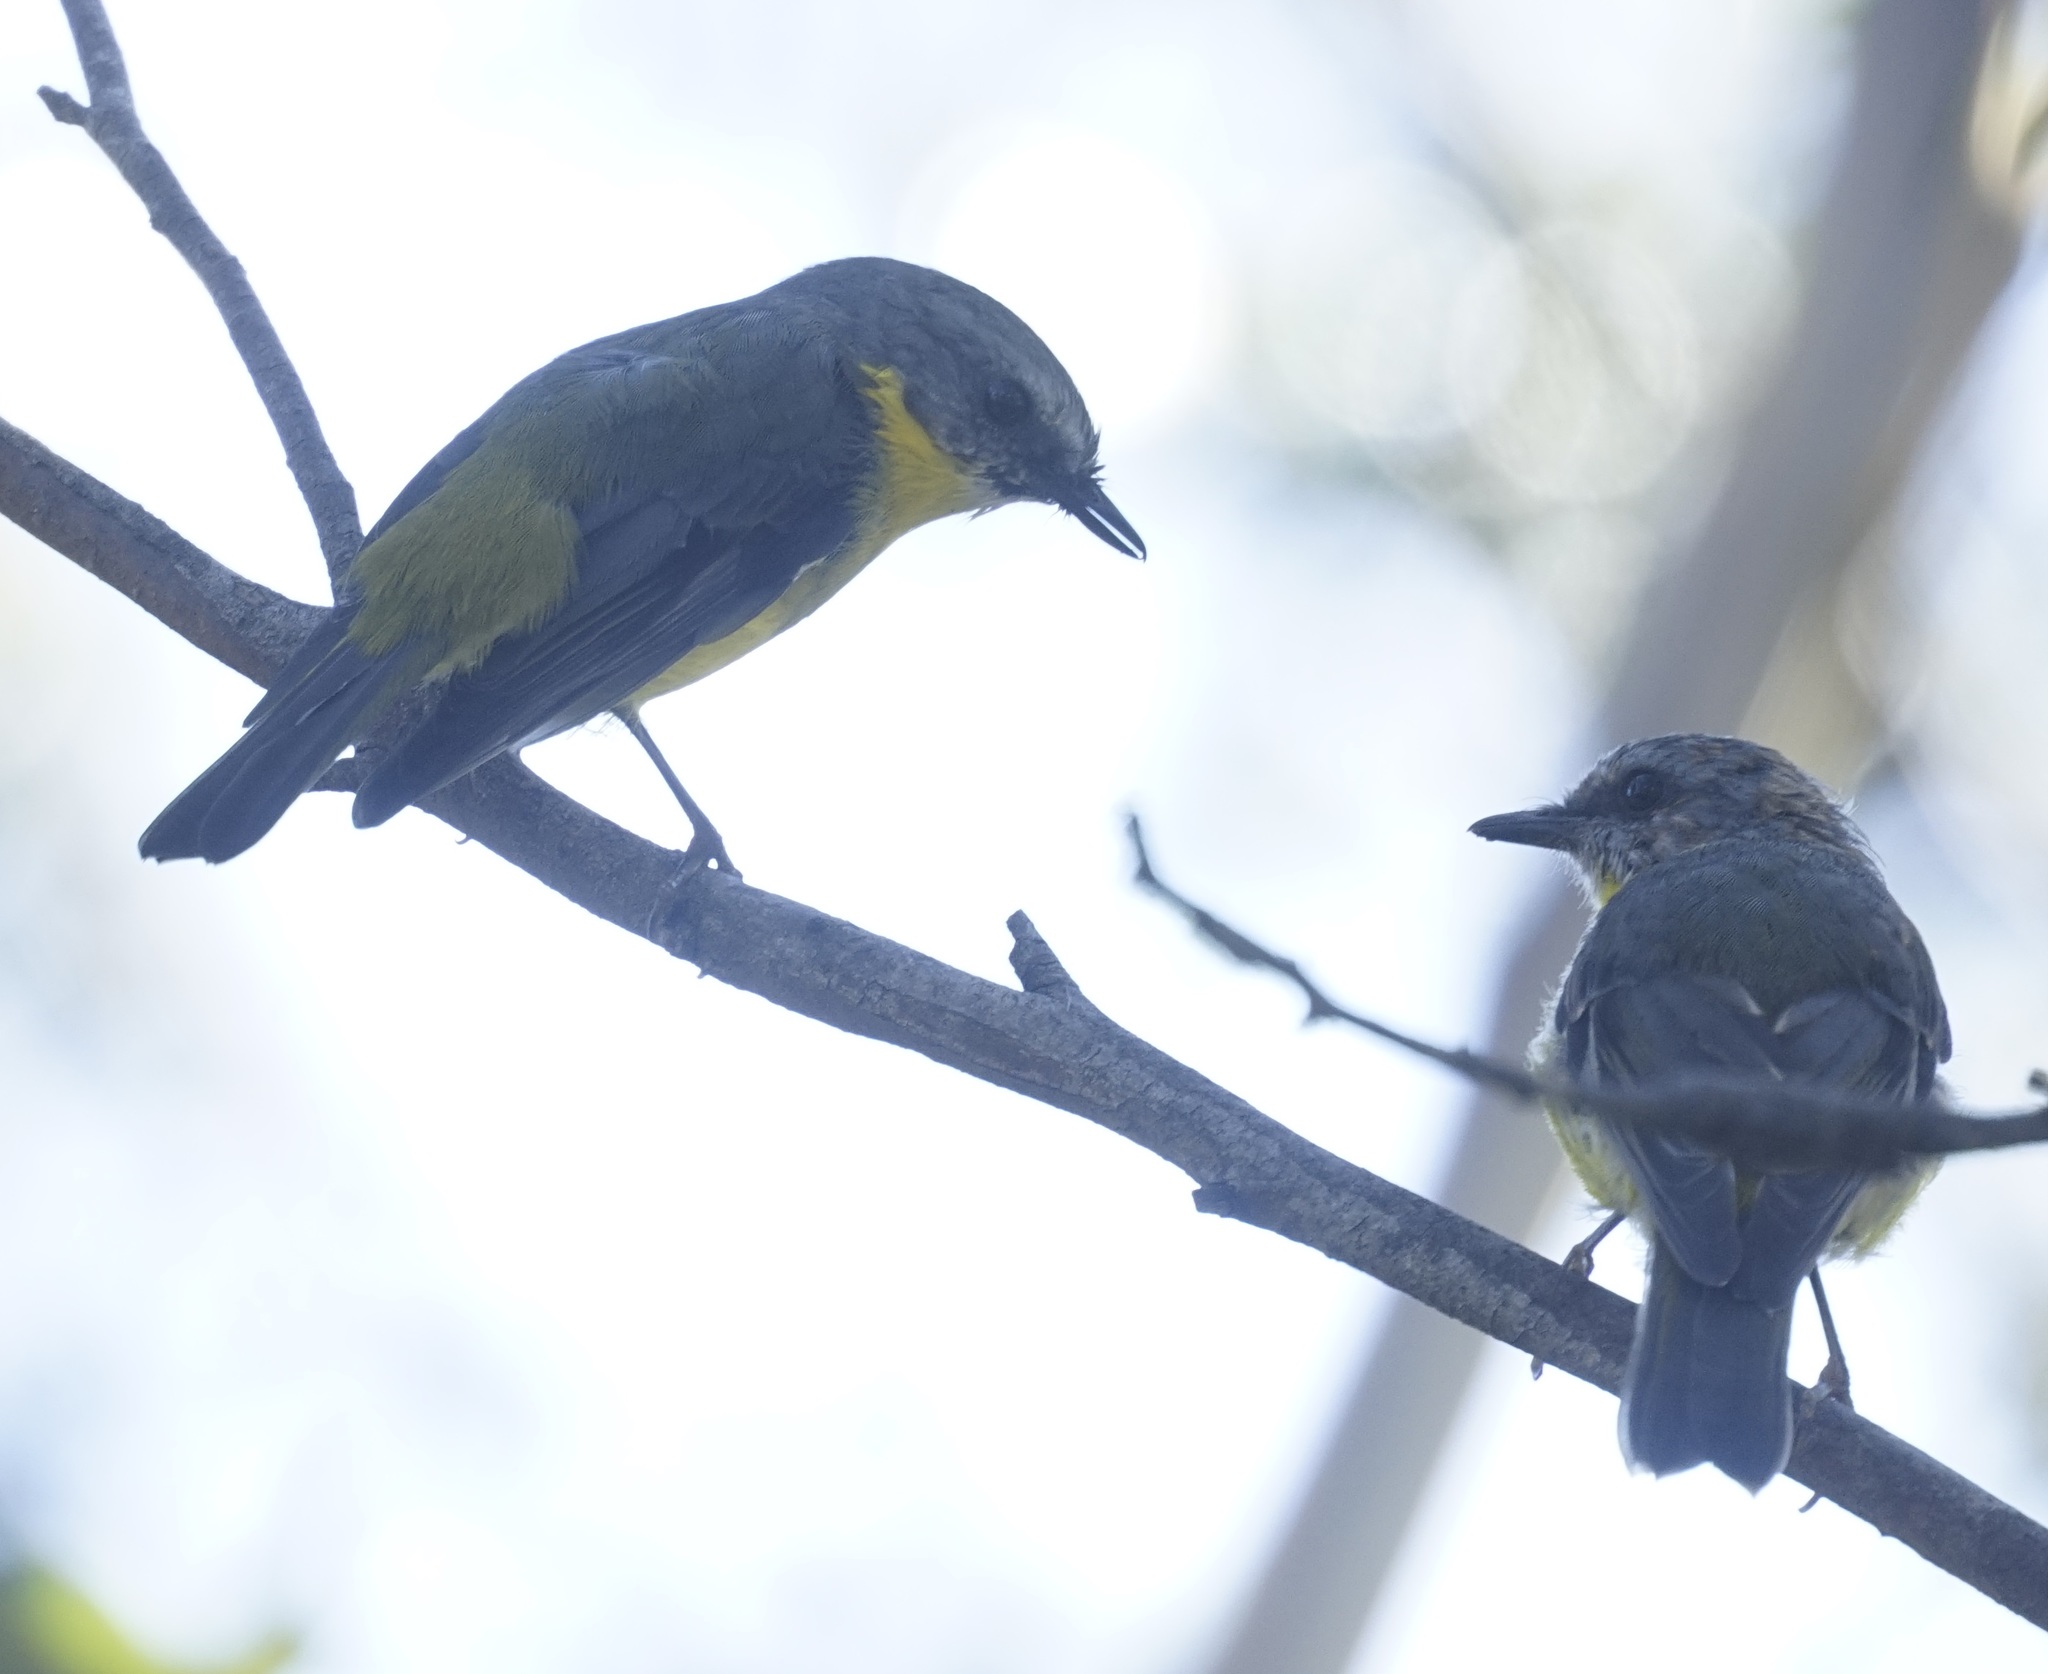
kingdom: Animalia
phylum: Chordata
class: Aves
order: Passeriformes
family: Petroicidae
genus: Eopsaltria
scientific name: Eopsaltria australis
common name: Eastern yellow robin
